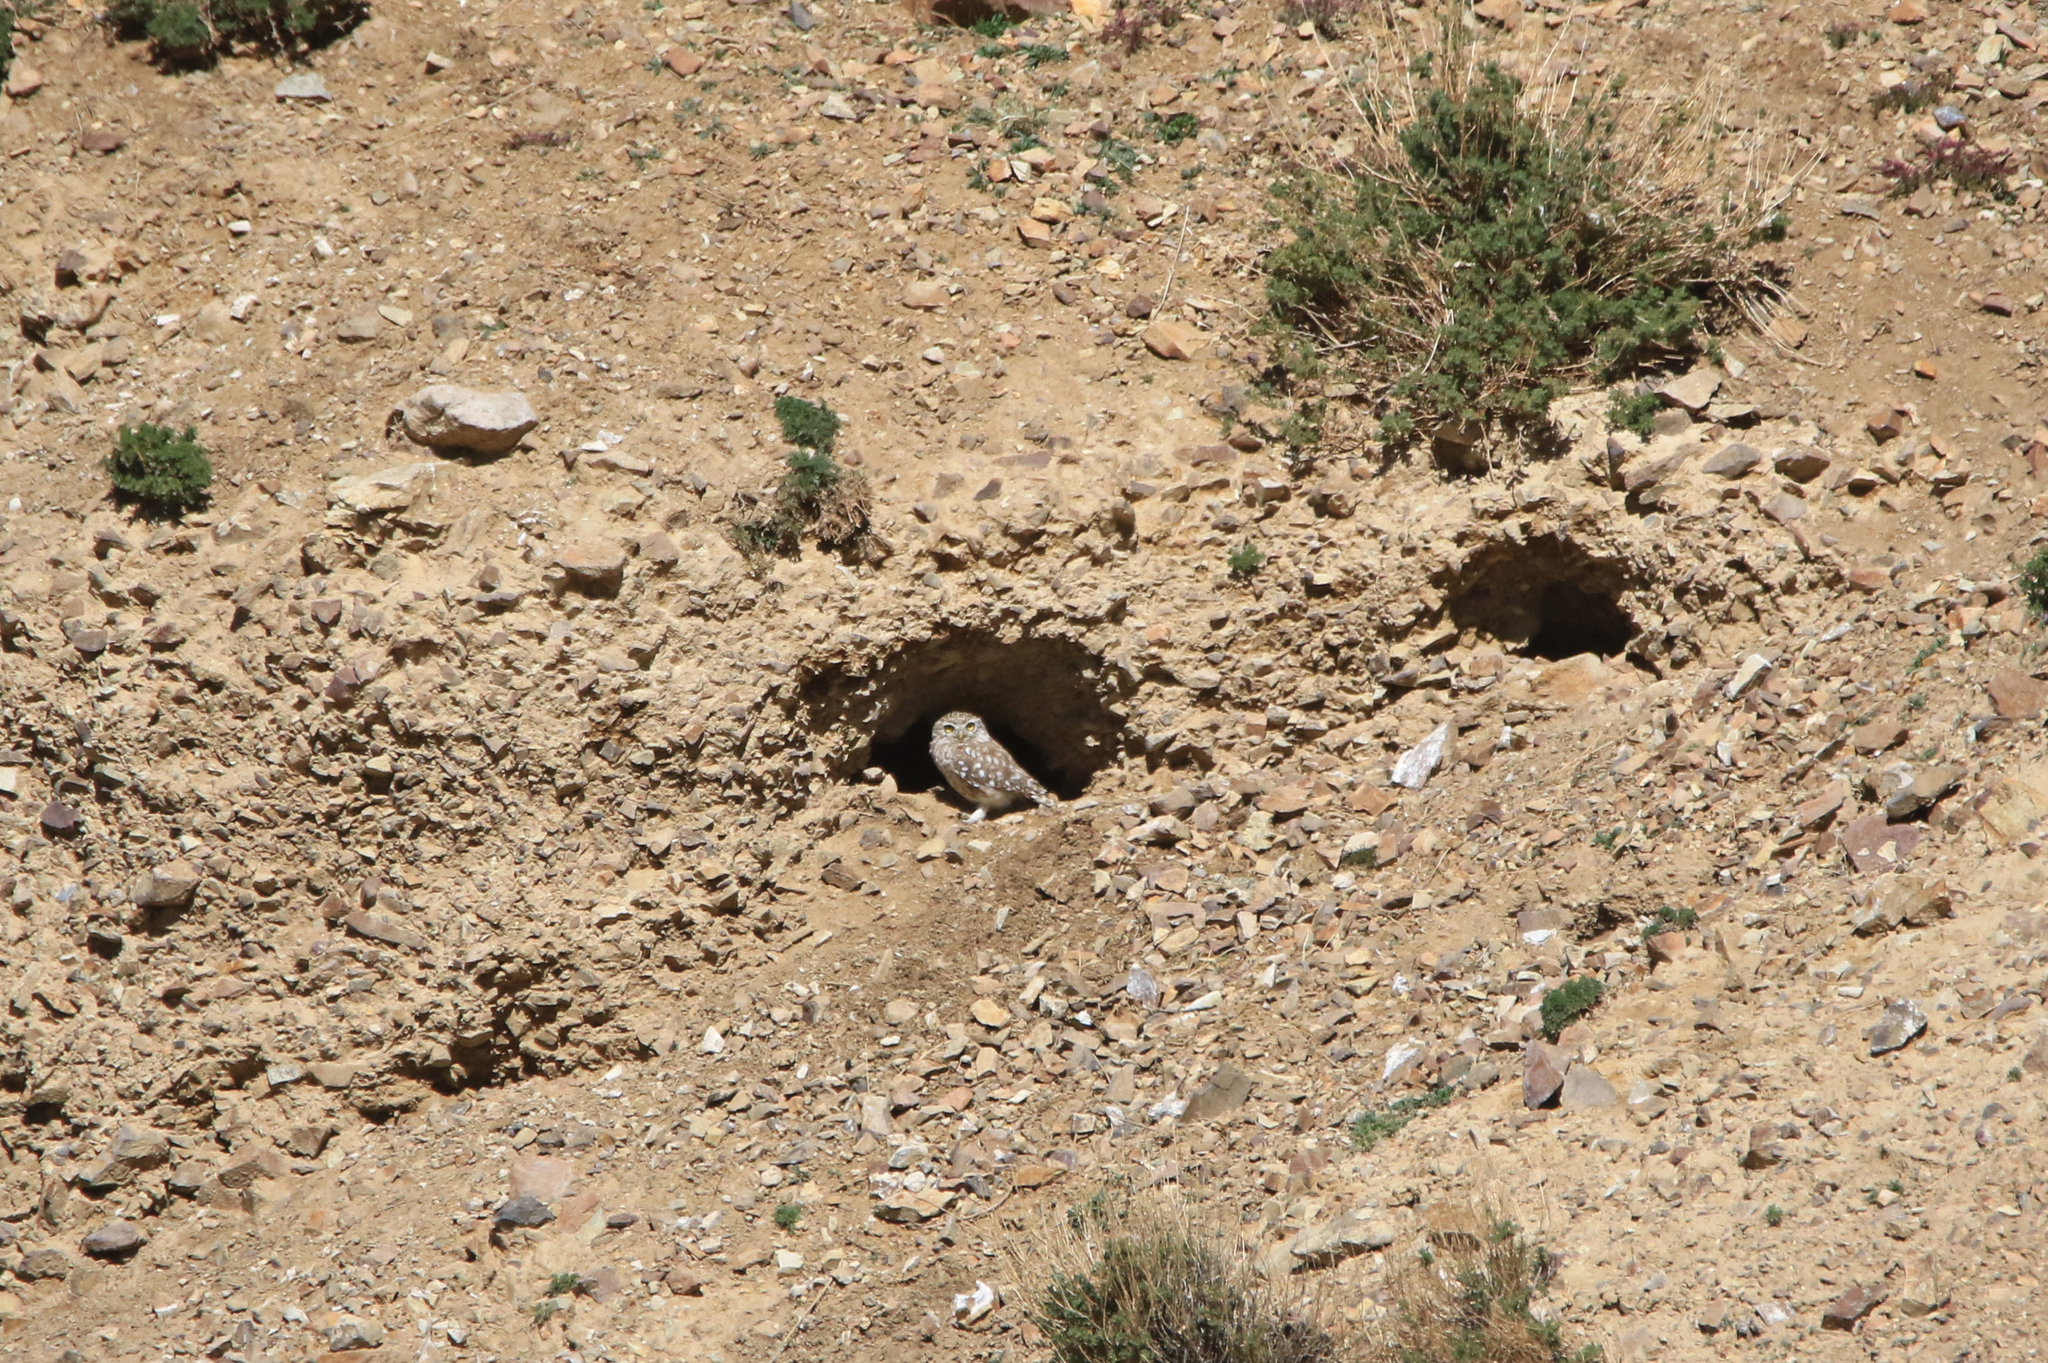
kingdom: Animalia
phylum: Chordata
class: Aves
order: Strigiformes
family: Strigidae
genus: Athene
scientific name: Athene noctua
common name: Little owl
